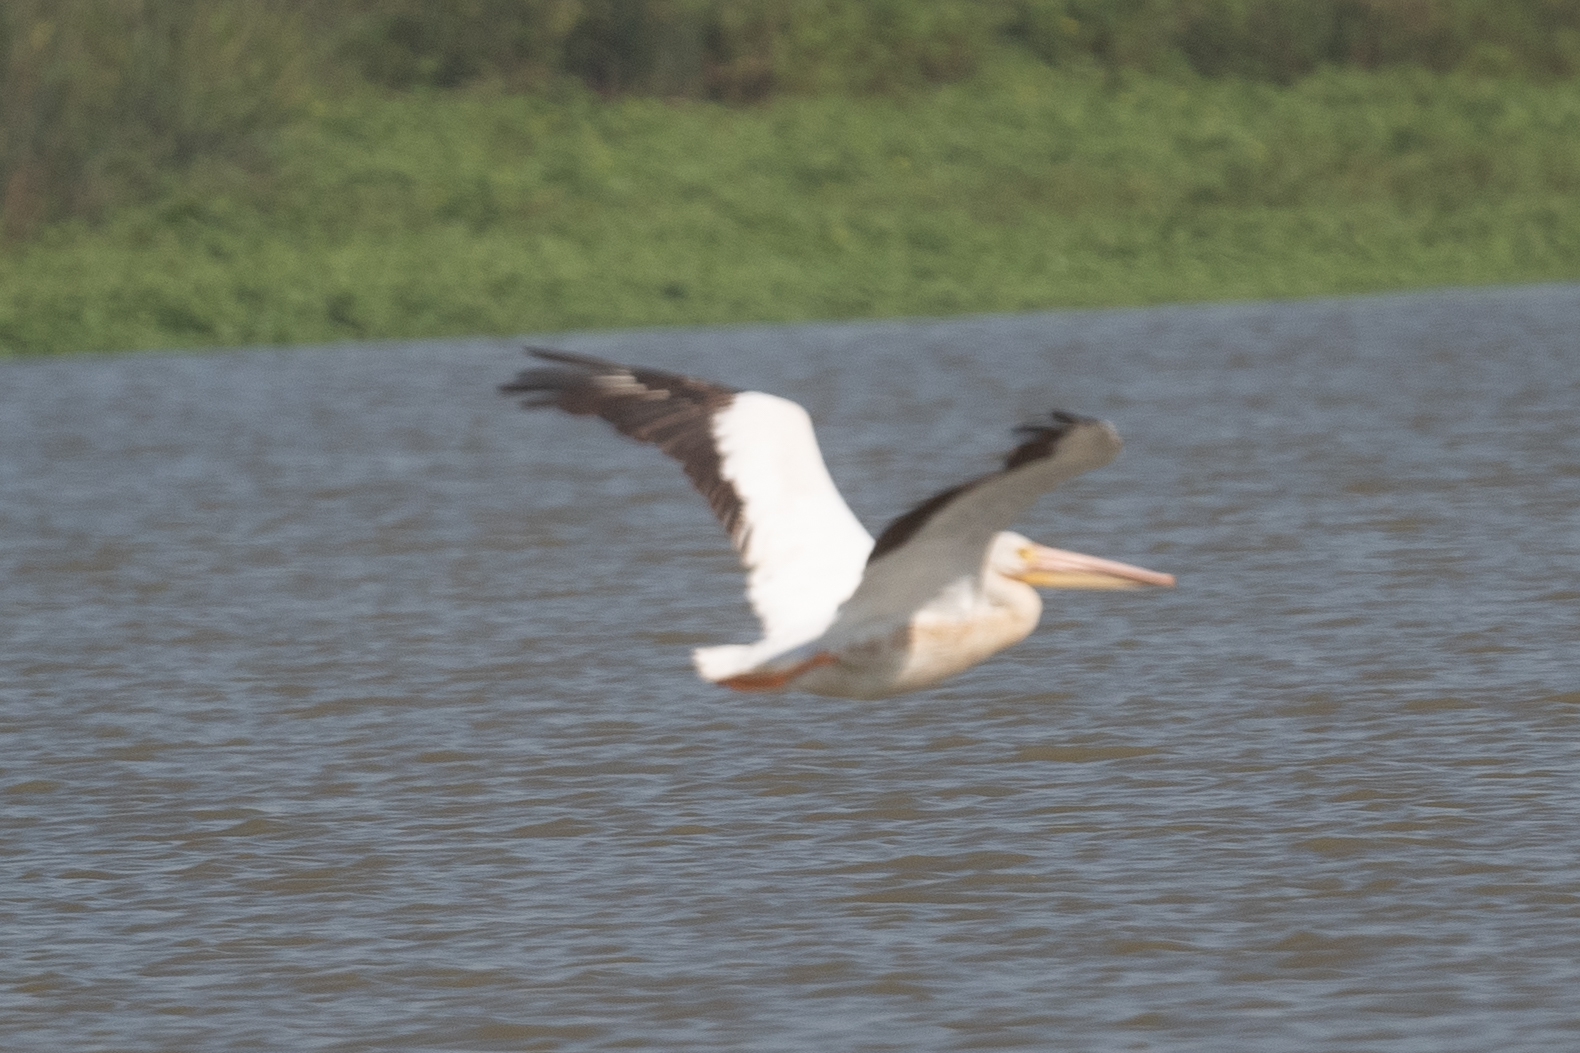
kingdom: Animalia
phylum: Chordata
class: Aves
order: Pelecaniformes
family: Pelecanidae
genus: Pelecanus
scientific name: Pelecanus erythrorhynchos
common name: American white pelican
